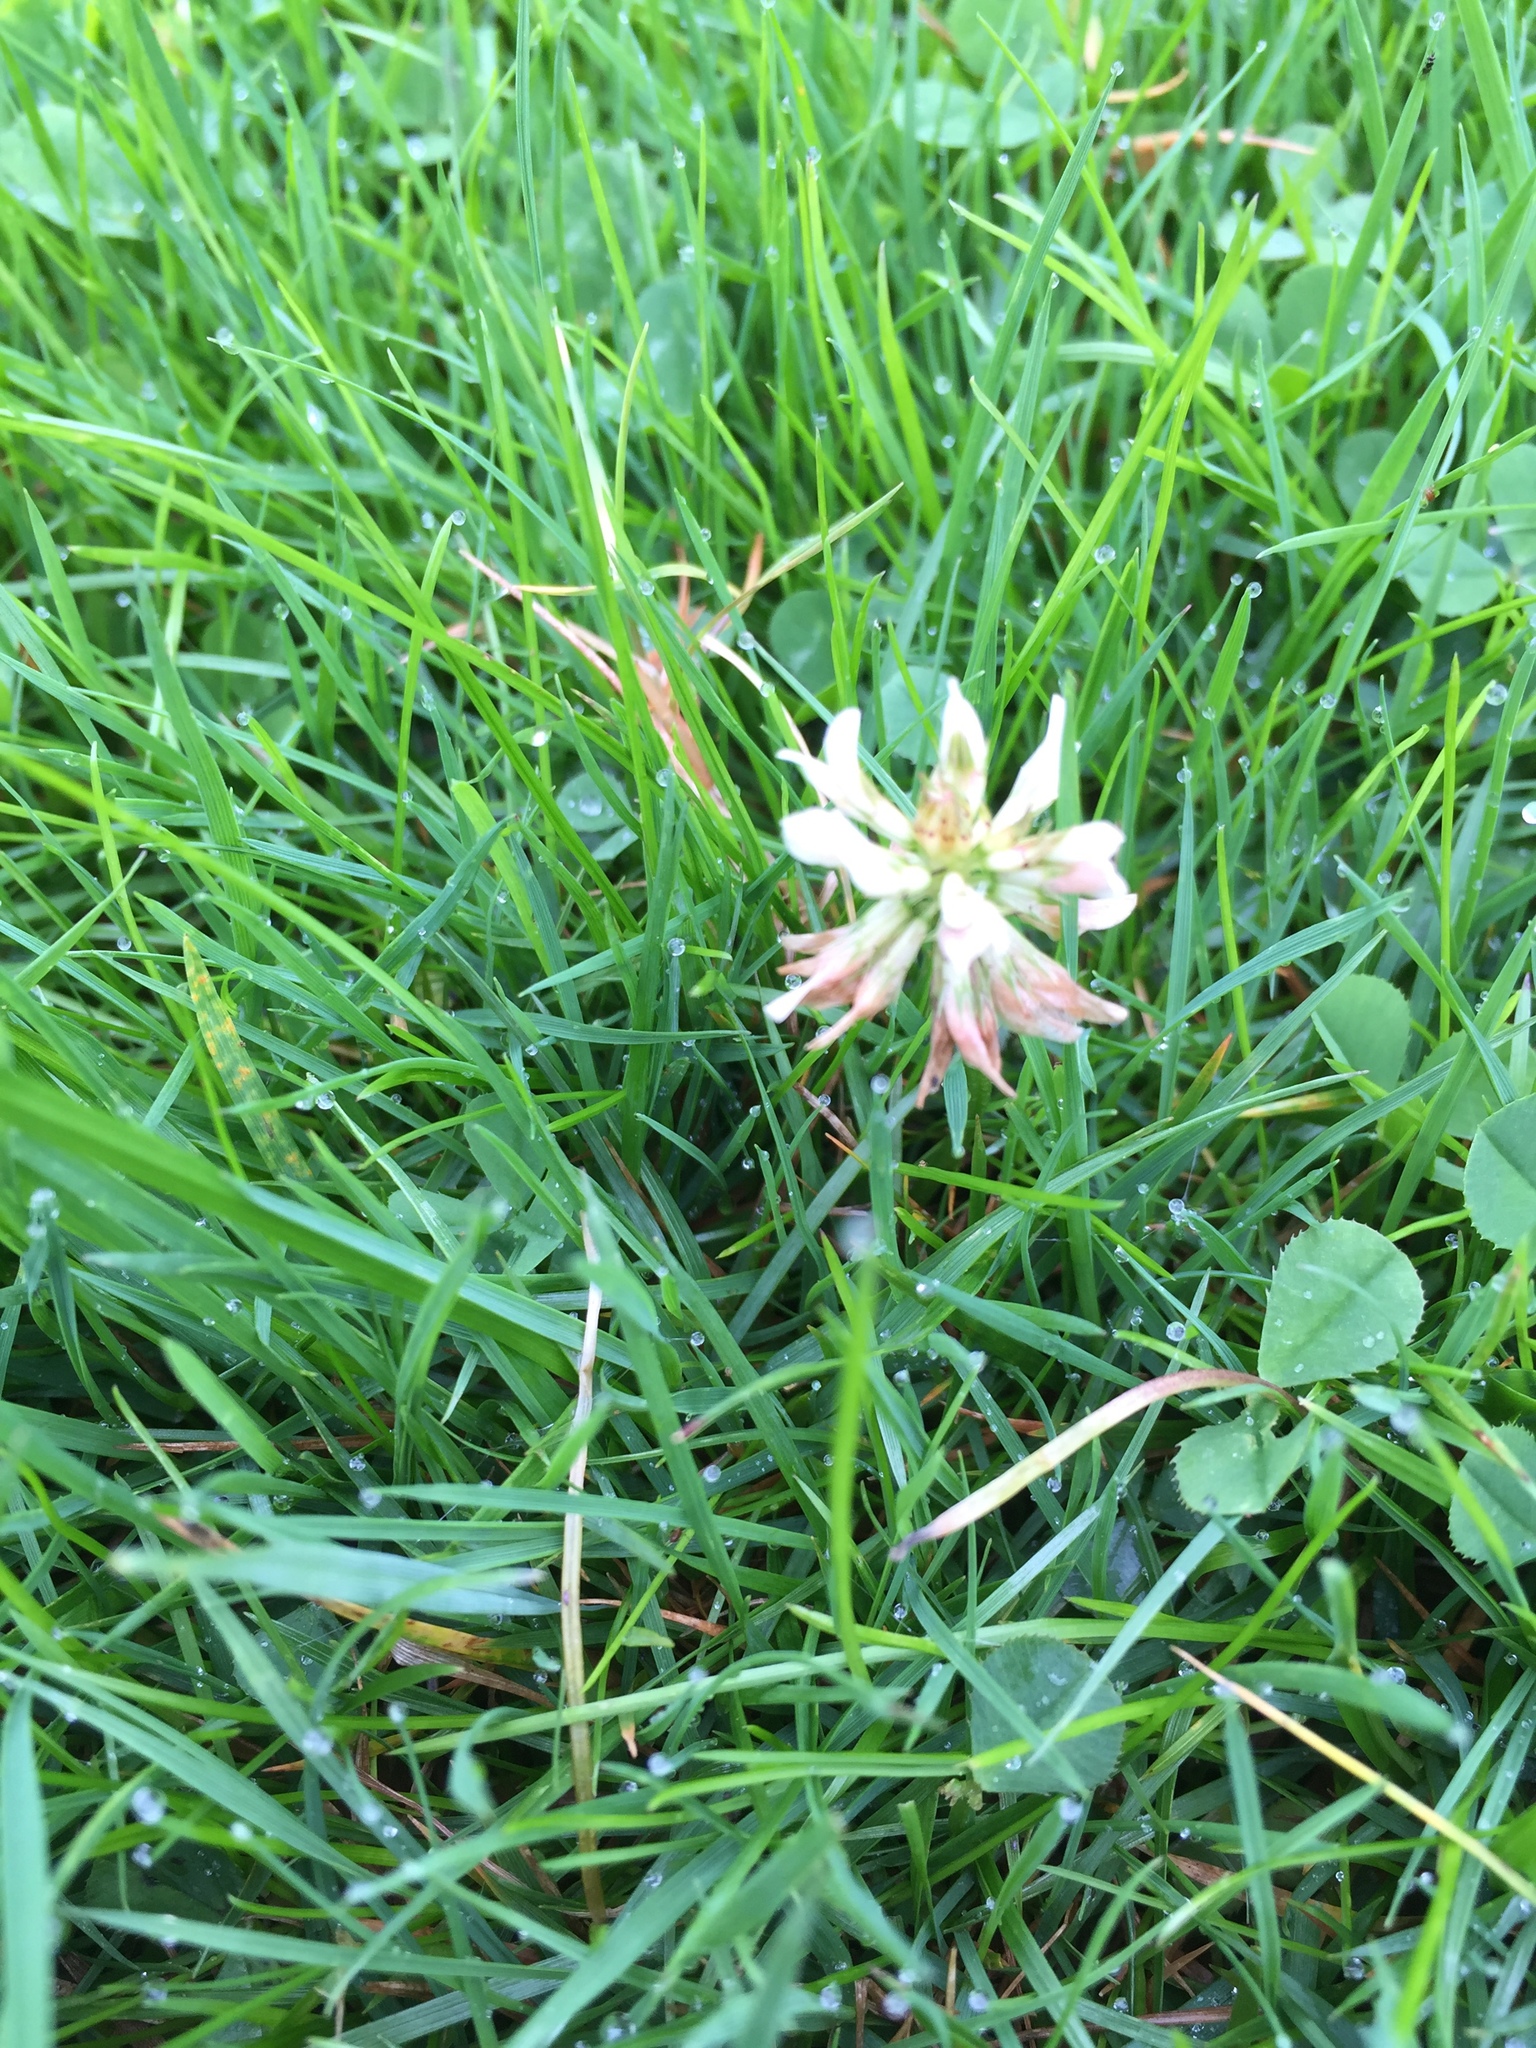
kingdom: Plantae
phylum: Tracheophyta
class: Magnoliopsida
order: Fabales
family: Fabaceae
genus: Trifolium
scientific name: Trifolium repens
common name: White clover
